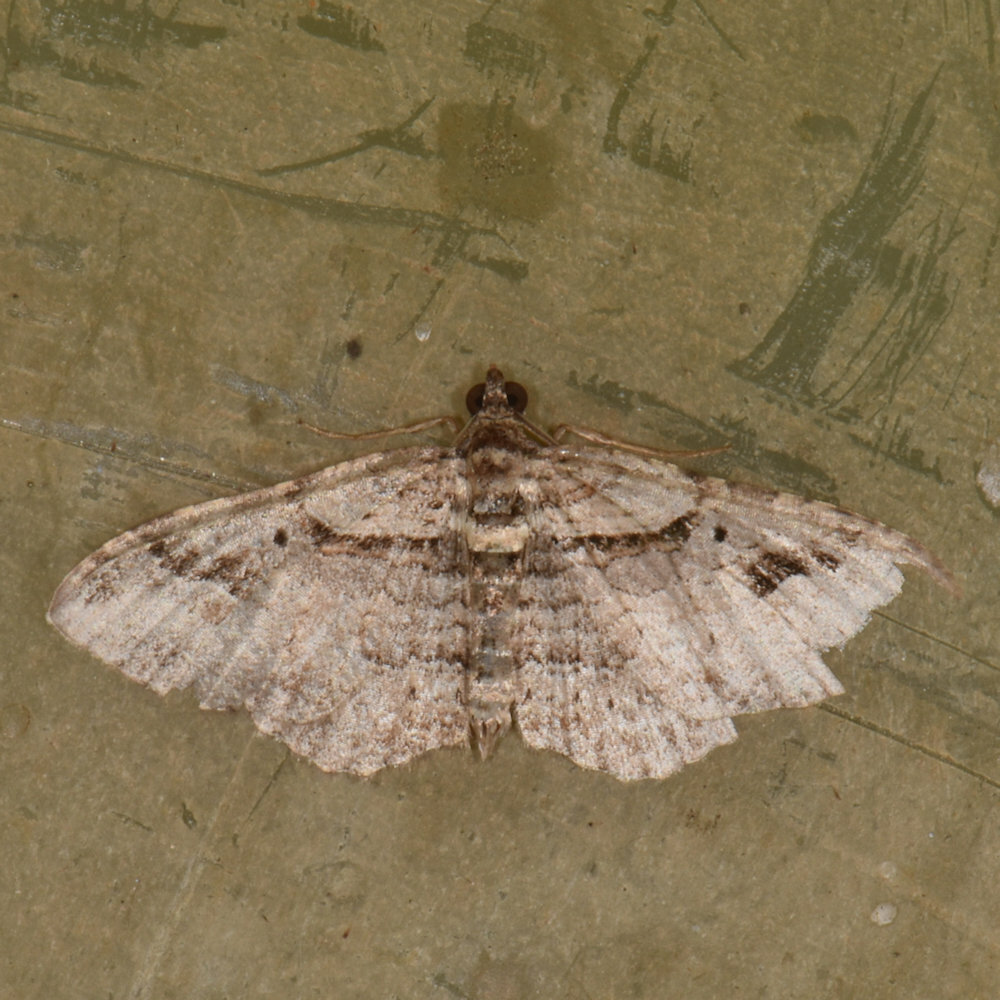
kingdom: Animalia
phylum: Arthropoda
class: Insecta
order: Lepidoptera
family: Geometridae
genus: Costaconvexa
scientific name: Costaconvexa centrostrigaria
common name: Bent-line carpet
